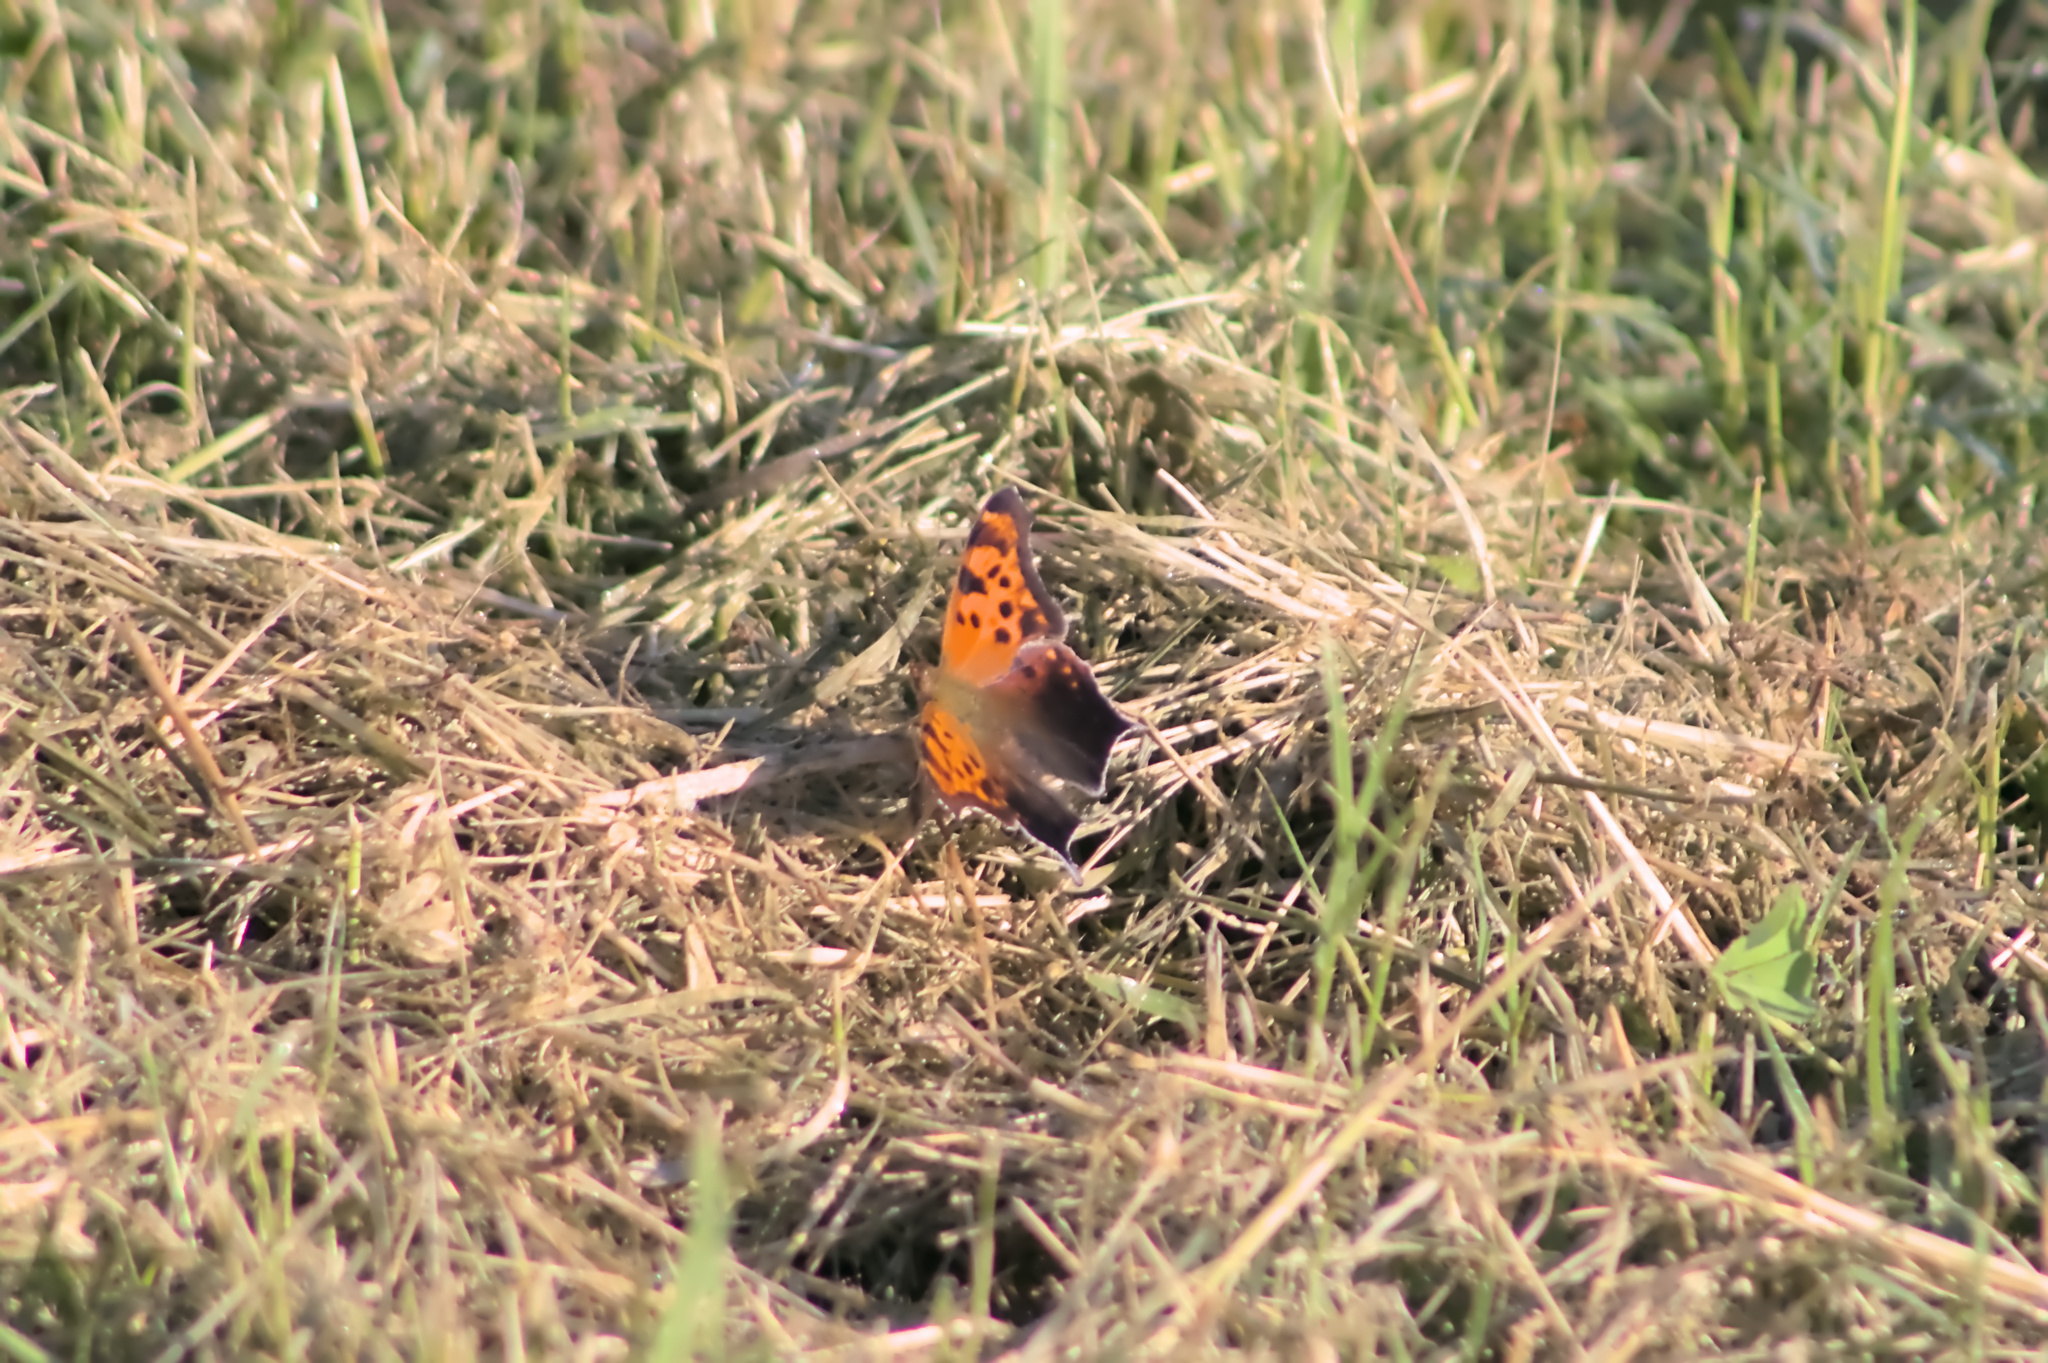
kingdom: Animalia
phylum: Arthropoda
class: Insecta
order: Lepidoptera
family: Nymphalidae
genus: Polygonia
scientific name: Polygonia interrogationis
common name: Question mark
